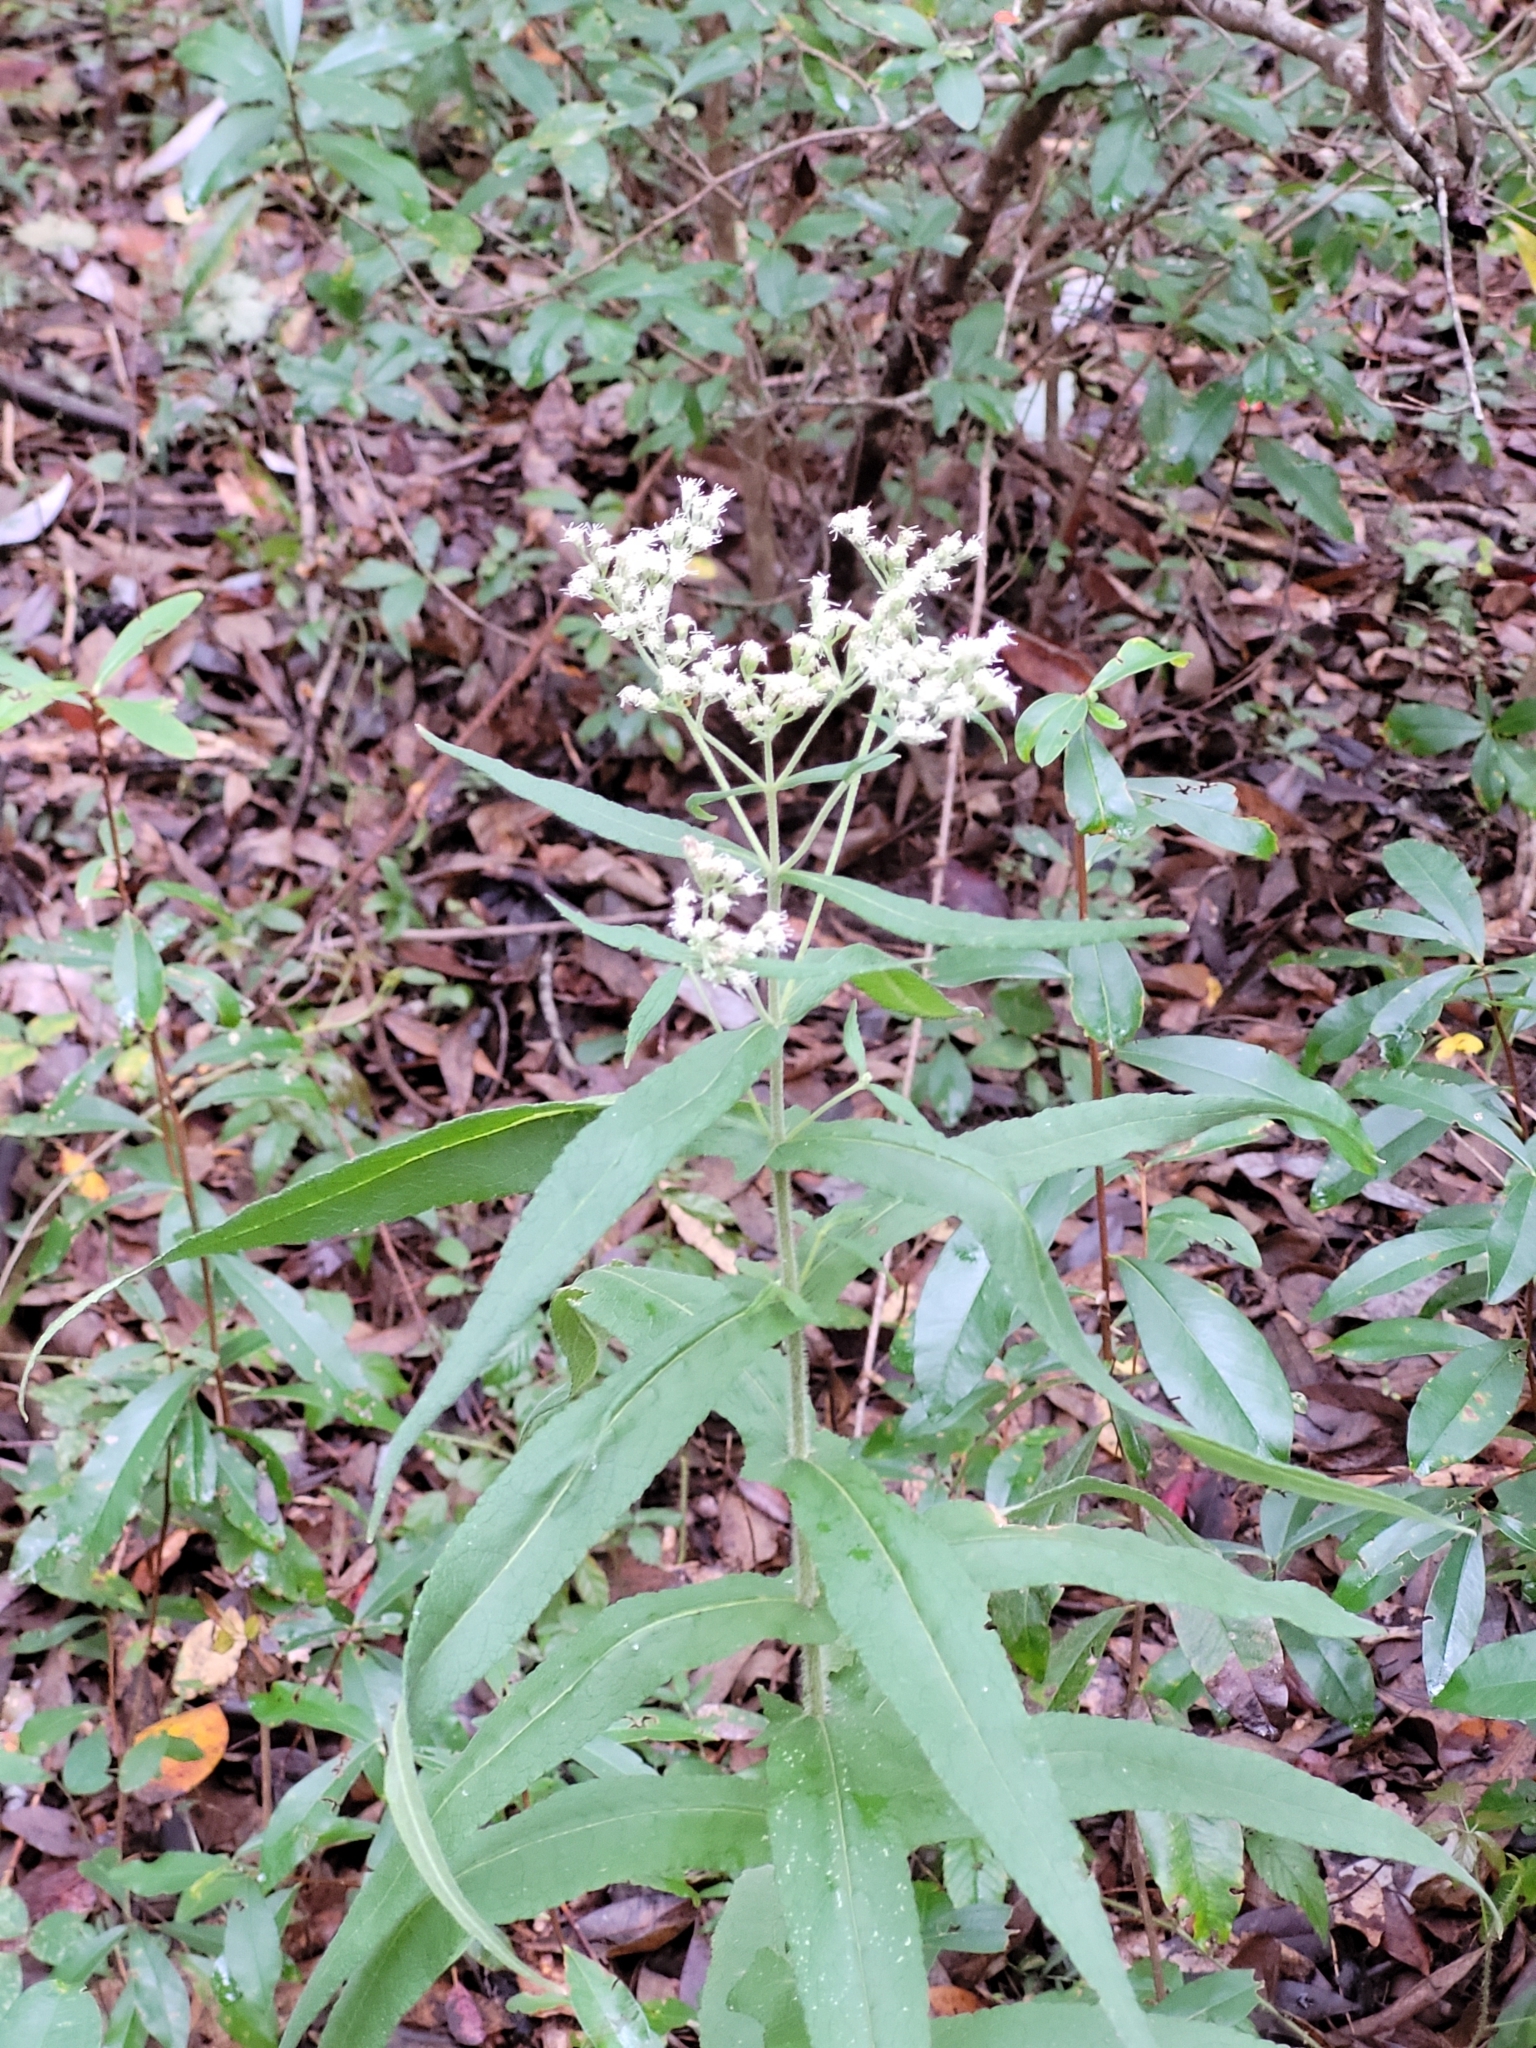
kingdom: Plantae
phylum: Tracheophyta
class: Magnoliopsida
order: Asterales
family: Asteraceae
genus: Eupatorium
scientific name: Eupatorium perfoliatum
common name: Boneset
